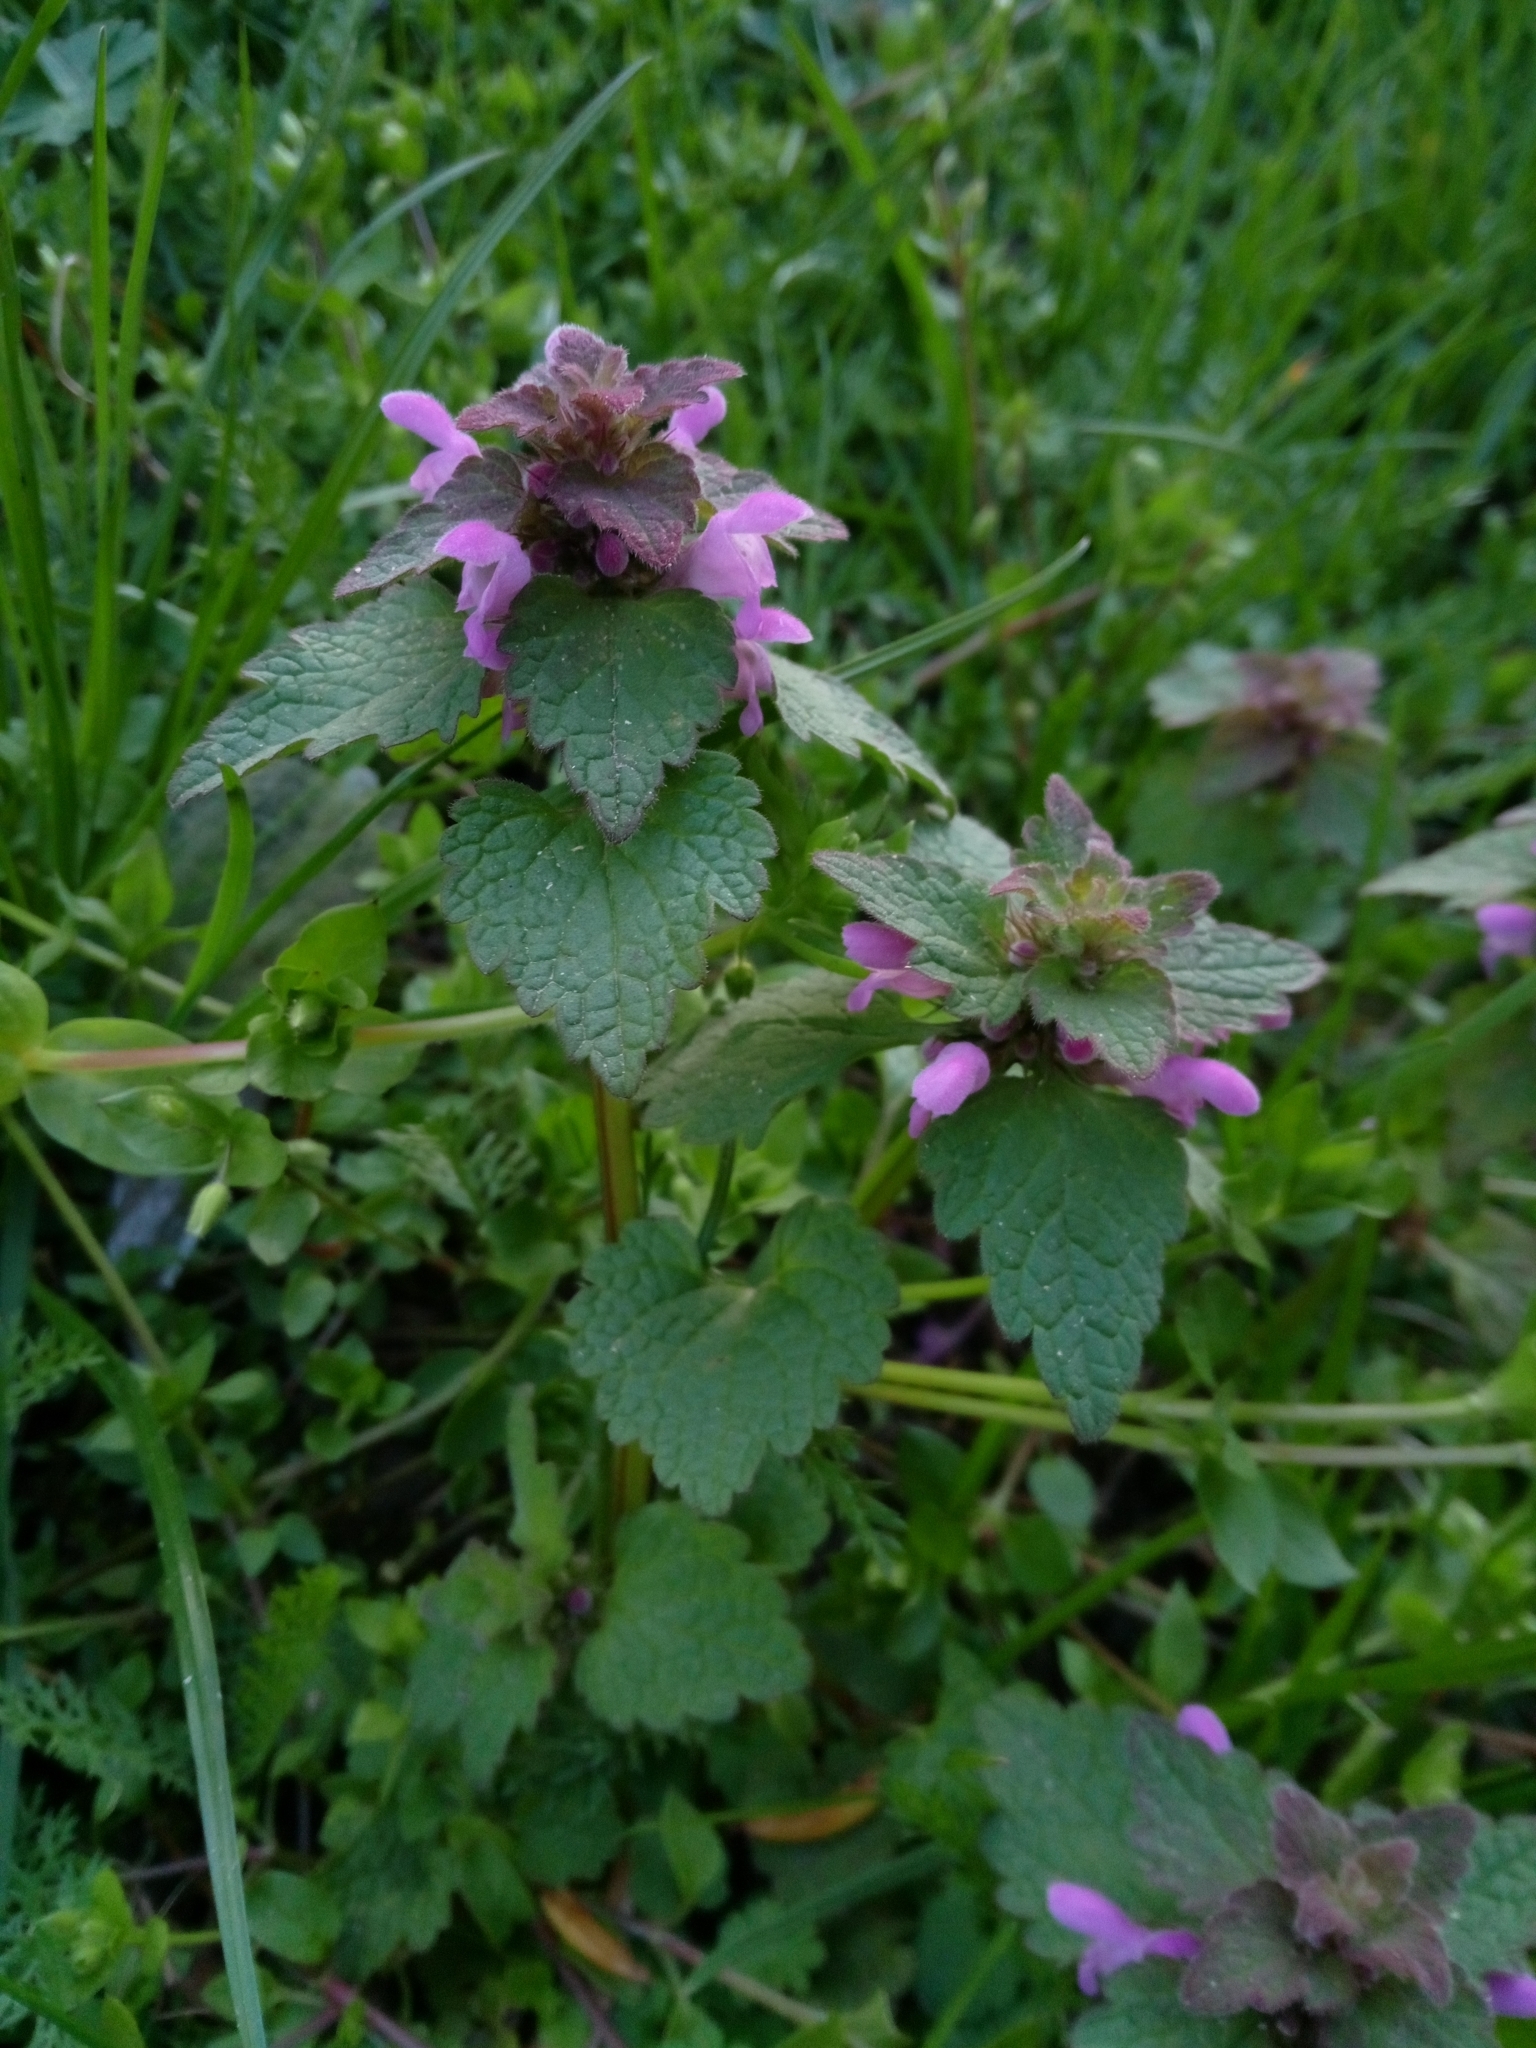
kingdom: Plantae
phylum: Tracheophyta
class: Magnoliopsida
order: Lamiales
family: Lamiaceae
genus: Lamium
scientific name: Lamium purpureum
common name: Red dead-nettle
